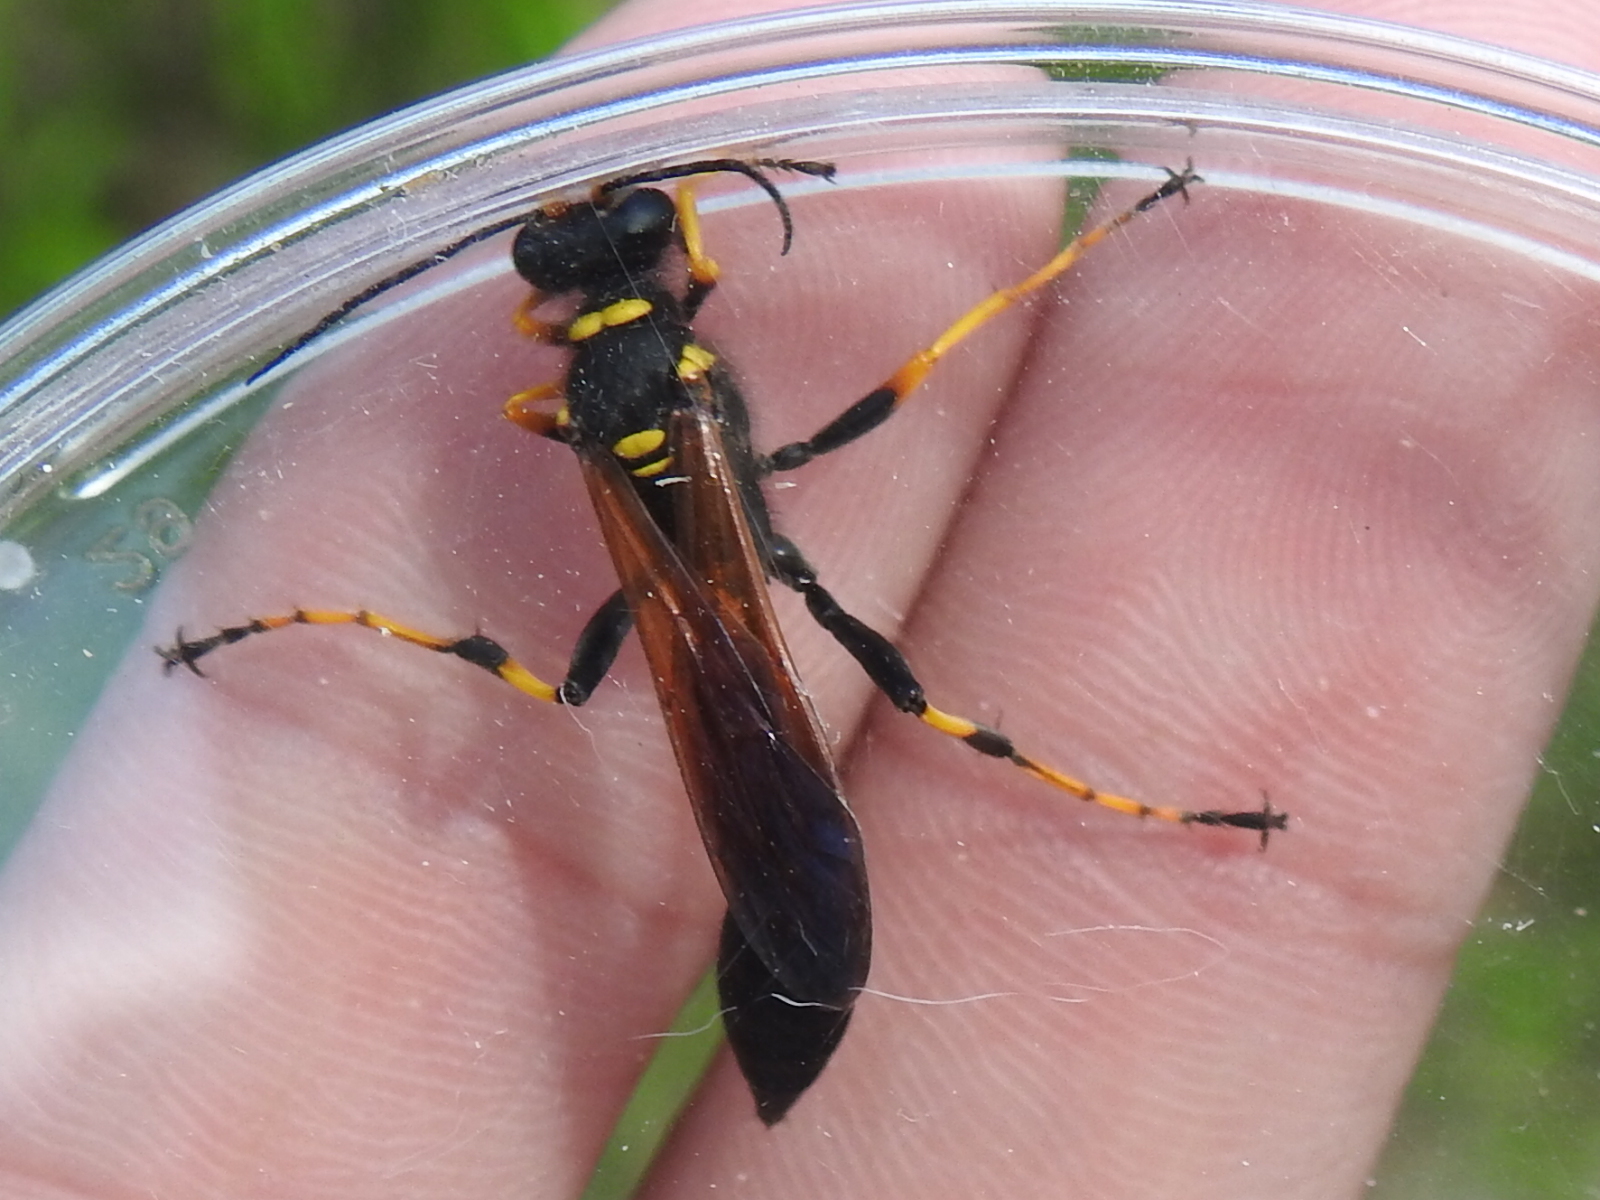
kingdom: Animalia
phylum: Arthropoda
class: Insecta
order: Hymenoptera
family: Sphecidae
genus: Sceliphron
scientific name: Sceliphron caementarium
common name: Mud dauber
